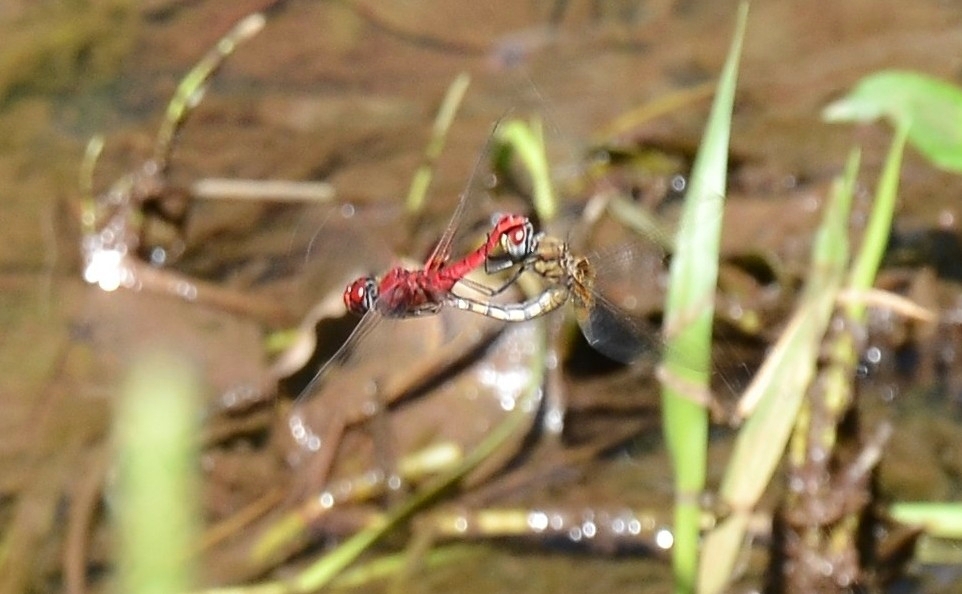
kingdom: Animalia
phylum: Arthropoda
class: Insecta
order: Odonata
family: Libellulidae
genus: Urothemis
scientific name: Urothemis signata
